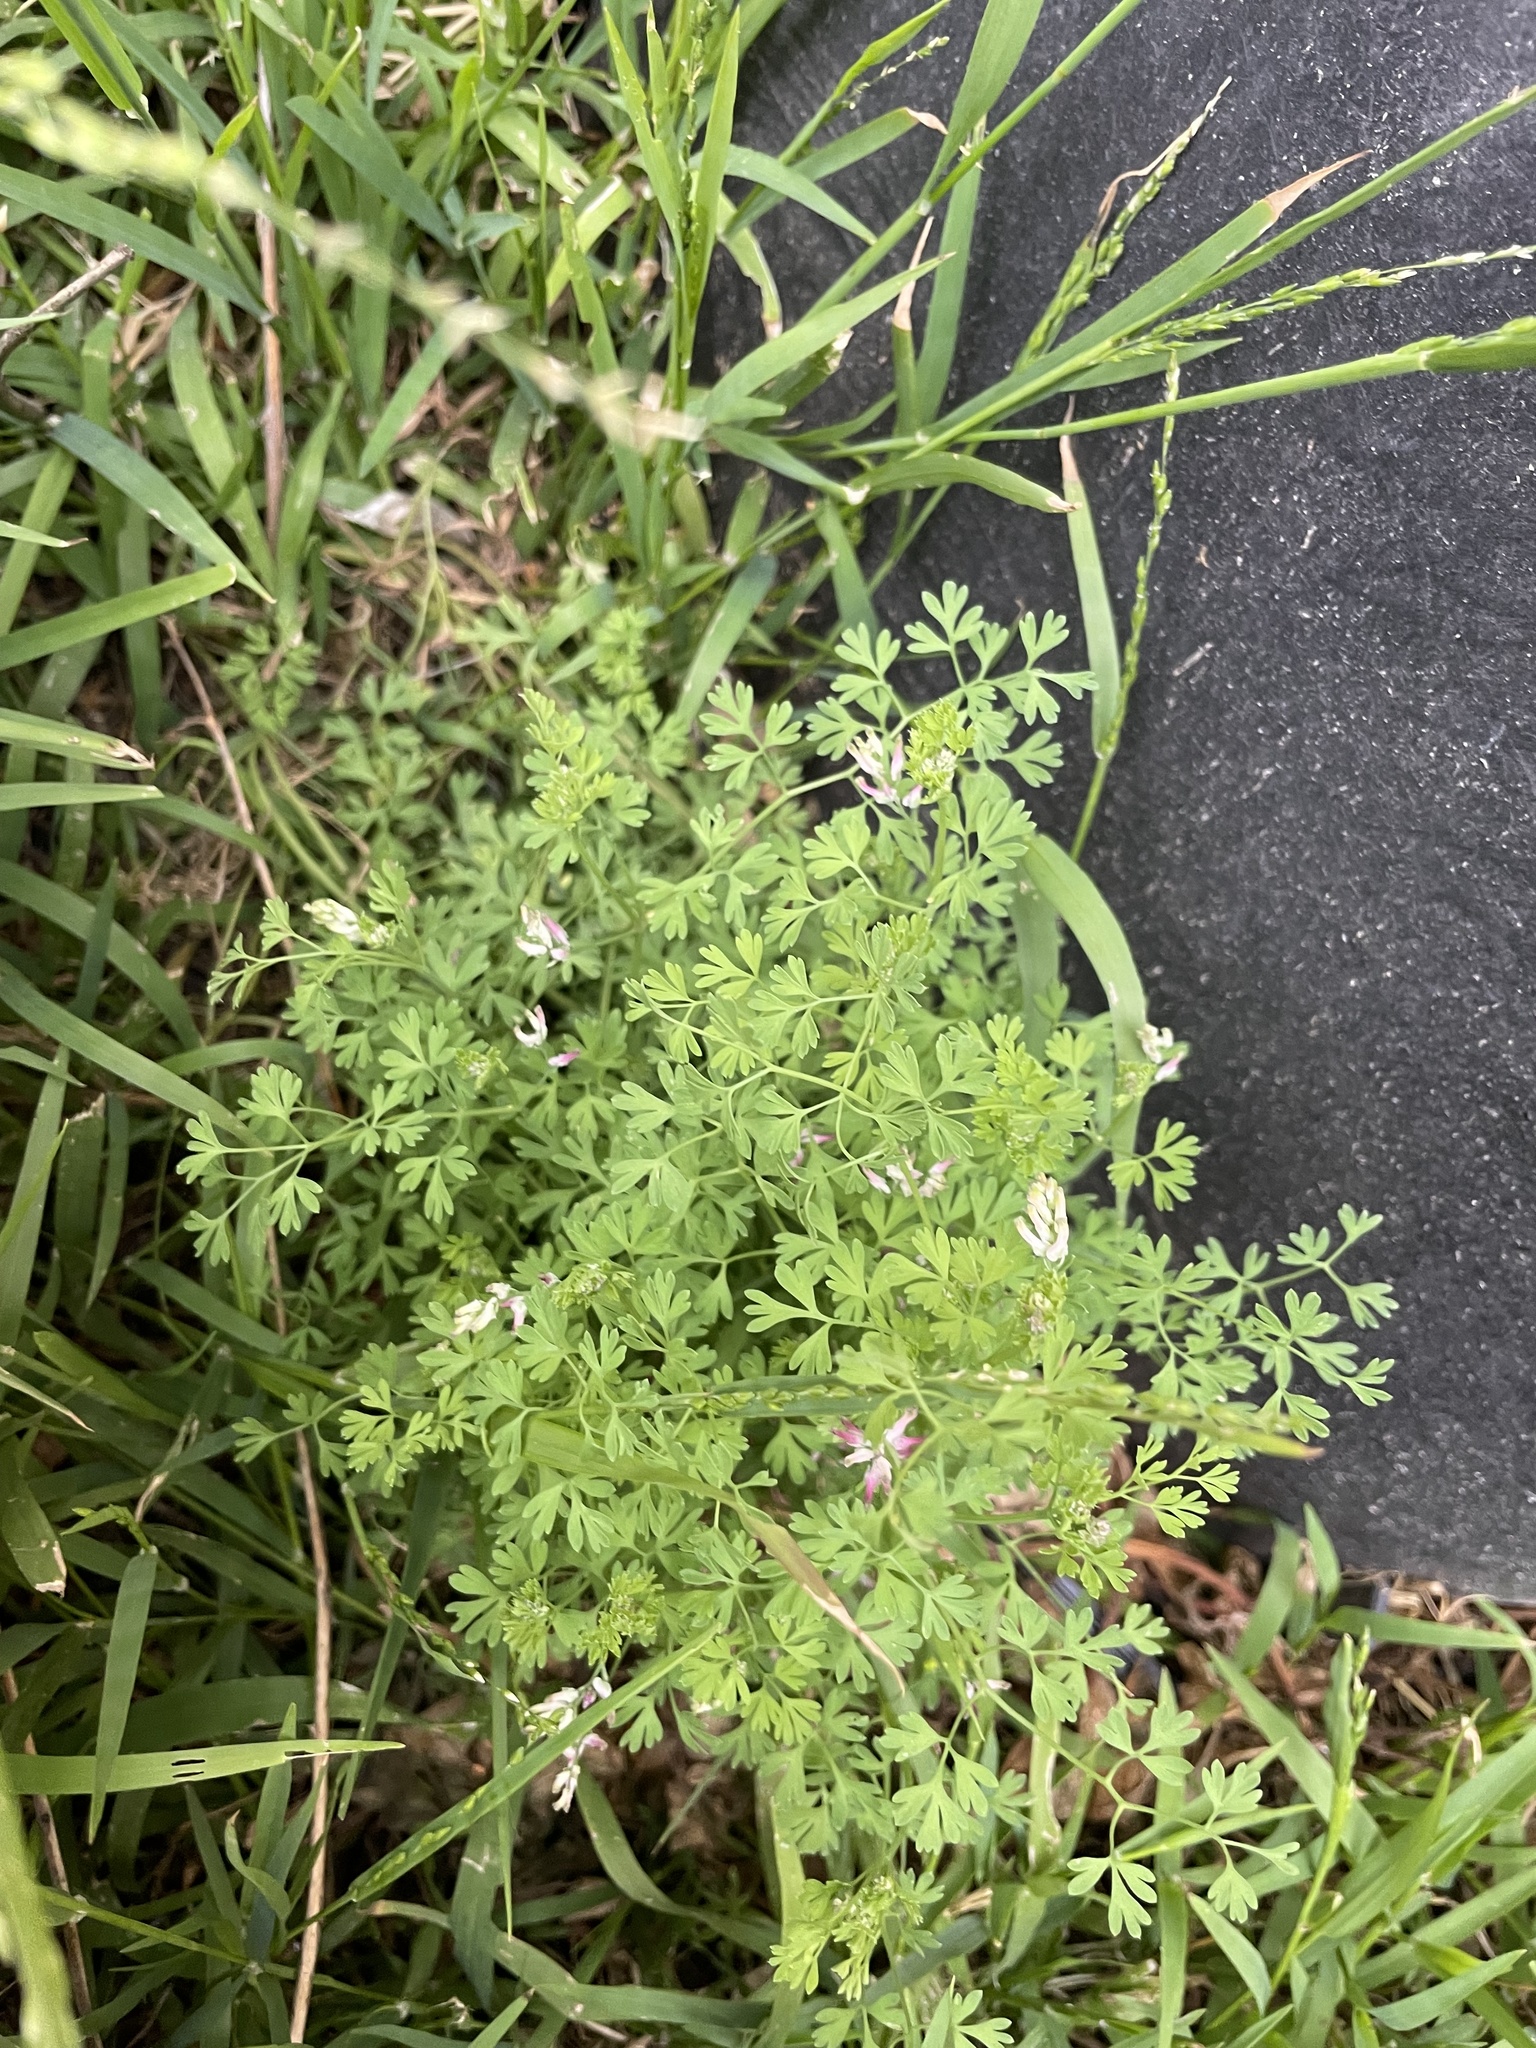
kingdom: Plantae
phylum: Tracheophyta
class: Magnoliopsida
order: Ranunculales
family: Papaveraceae
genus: Fumaria
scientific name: Fumaria muralis
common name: Common ramping-fumitory
